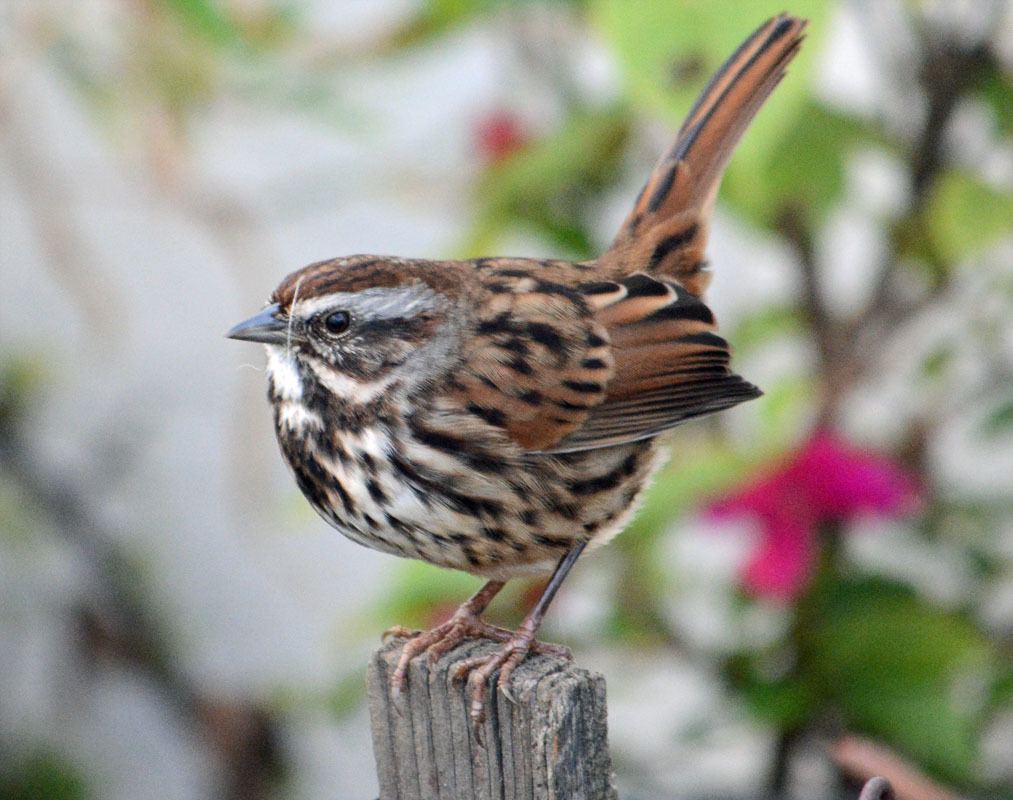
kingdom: Animalia
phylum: Chordata
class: Aves
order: Passeriformes
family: Passerellidae
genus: Melospiza
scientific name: Melospiza melodia
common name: Song sparrow
